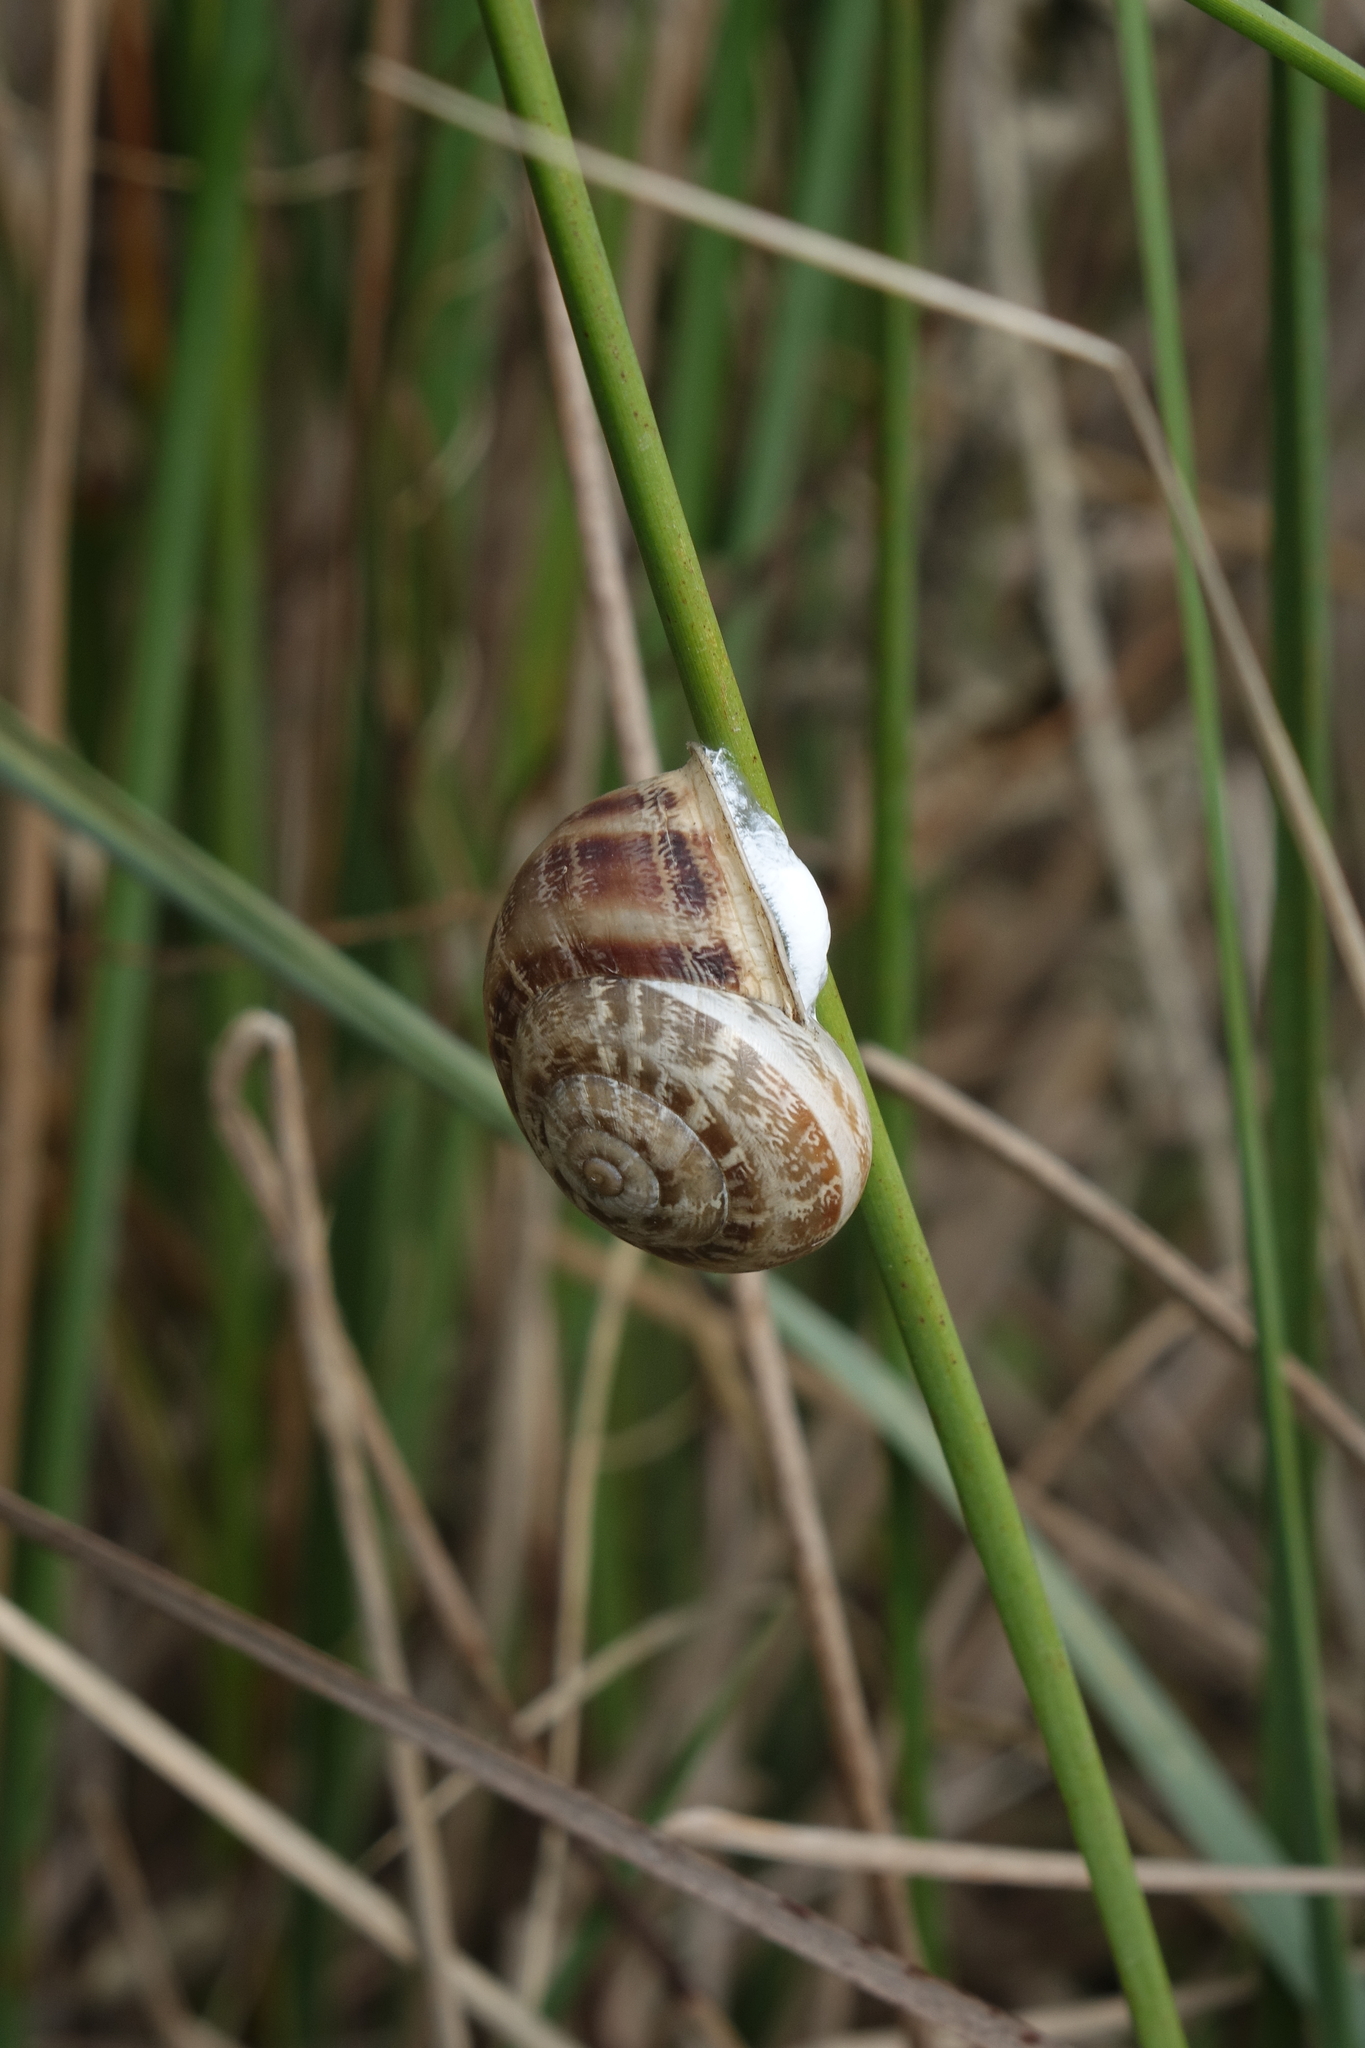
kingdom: Animalia
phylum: Mollusca
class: Gastropoda
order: Stylommatophora
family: Helicidae
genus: Eobania
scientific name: Eobania vermiculata
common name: Chocolateband snail
